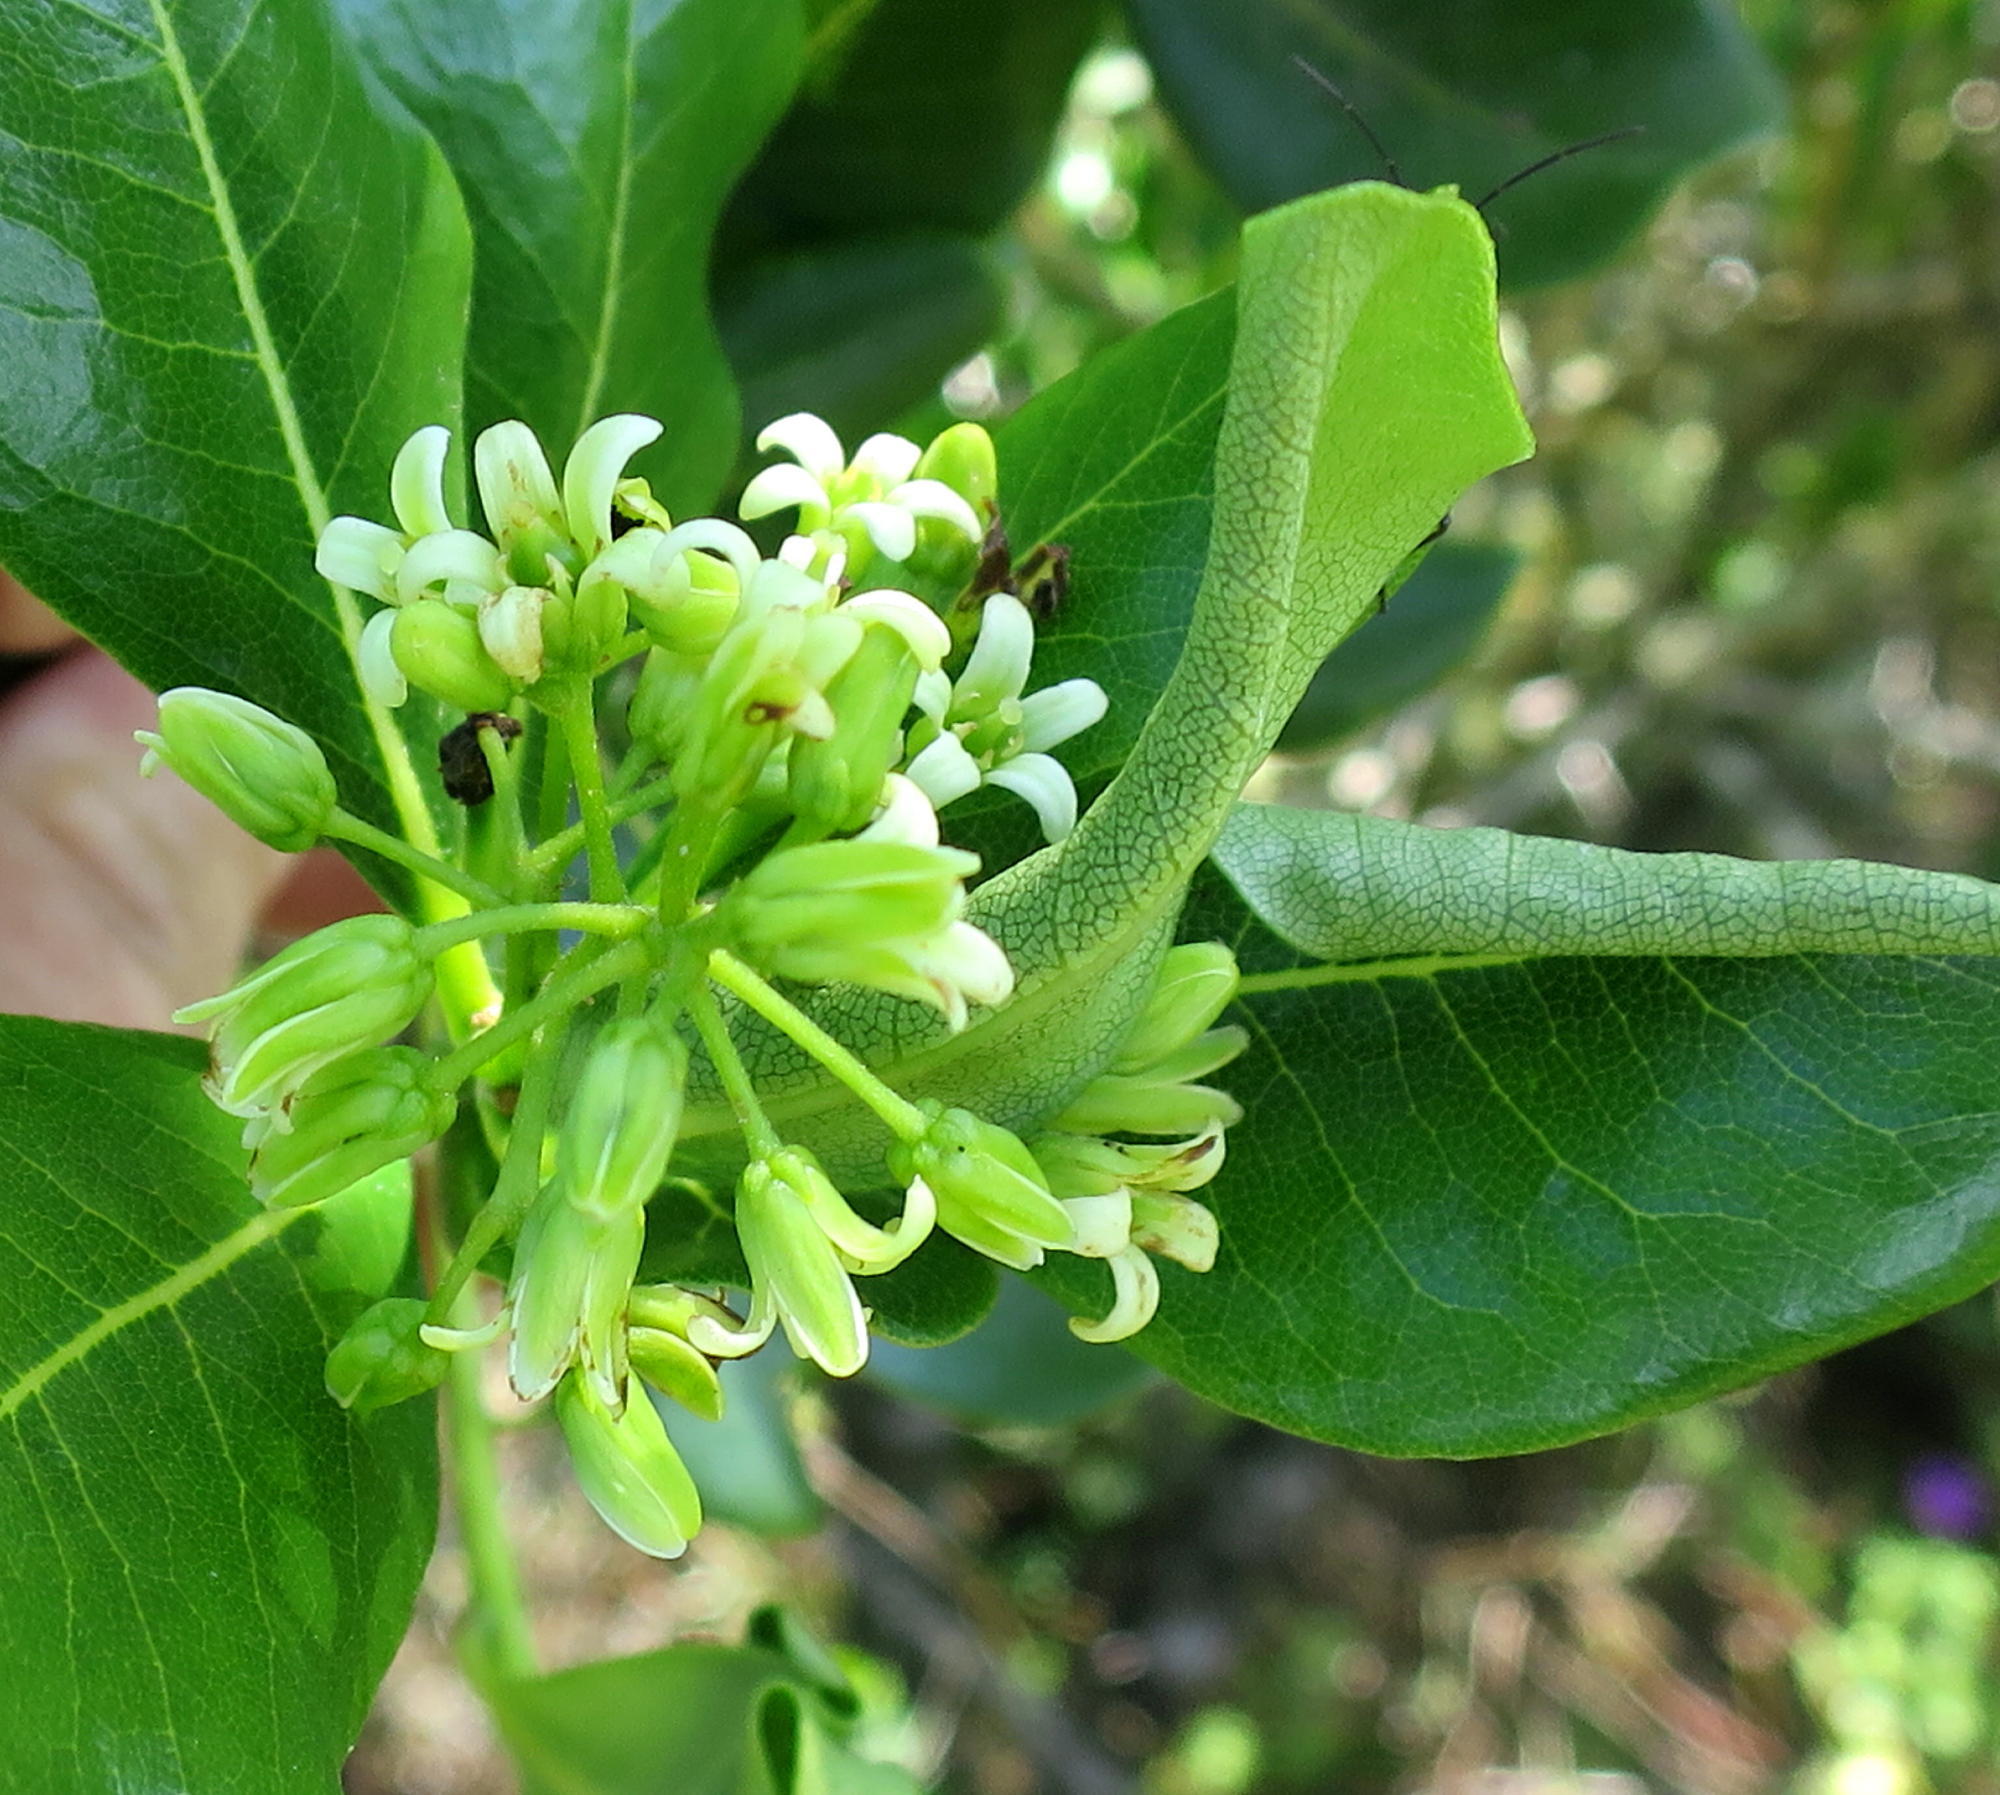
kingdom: Plantae
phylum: Tracheophyta
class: Magnoliopsida
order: Apiales
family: Pittosporaceae
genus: Pittosporum
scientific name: Pittosporum viridiflorum
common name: Cape cheesewood
